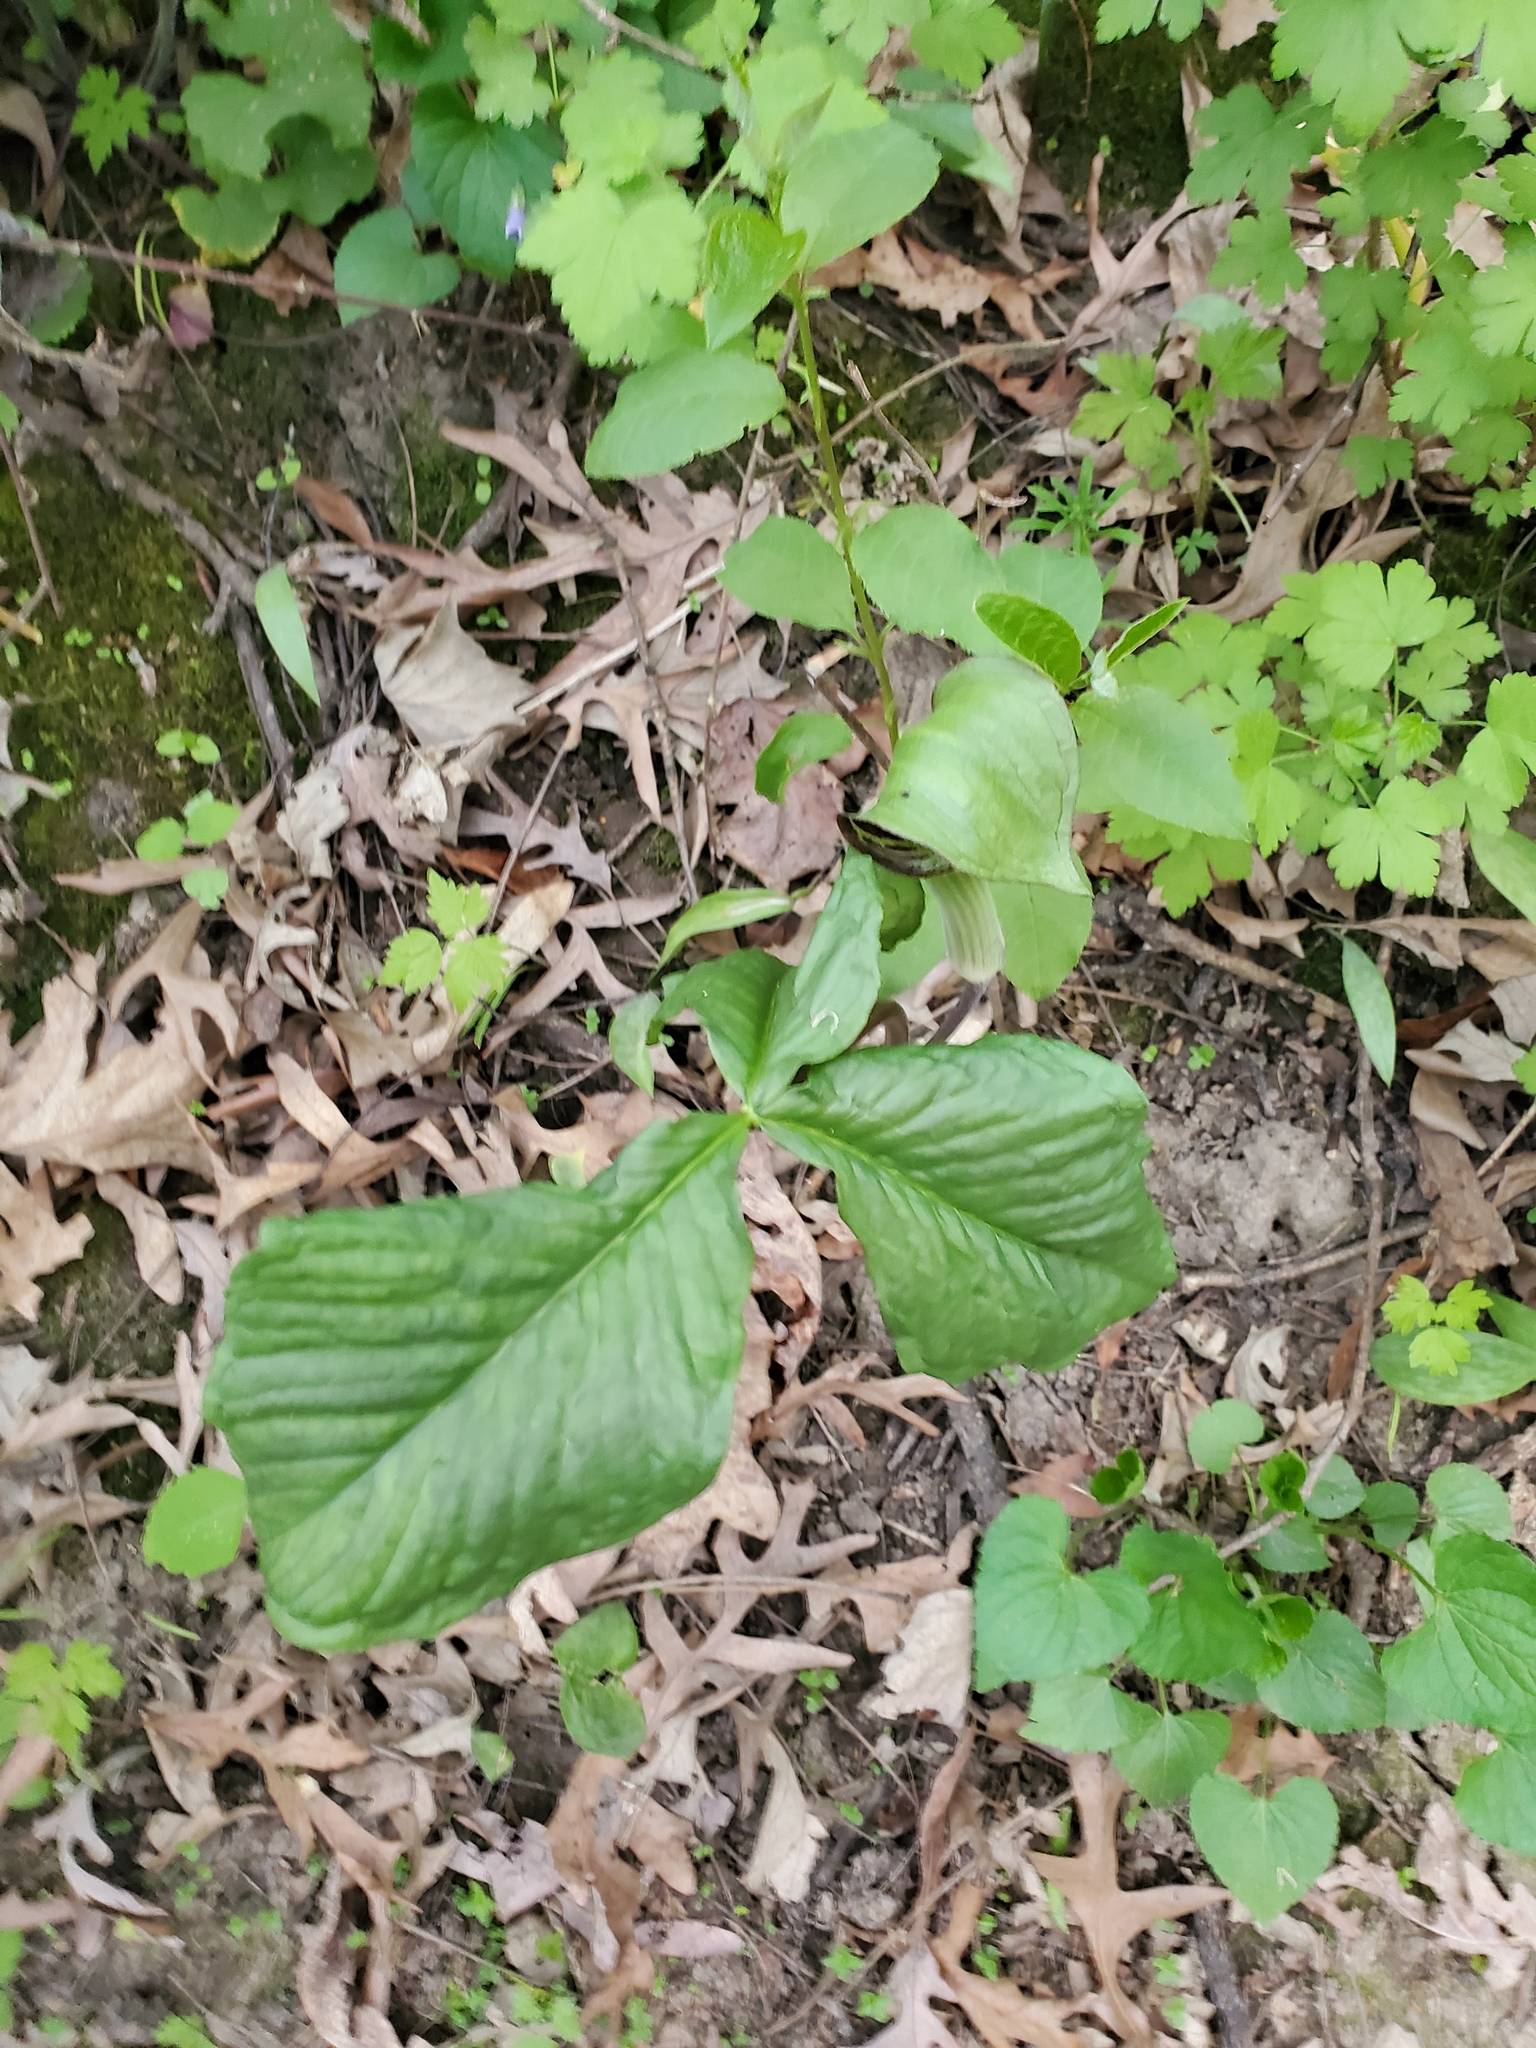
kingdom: Plantae
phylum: Tracheophyta
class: Liliopsida
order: Alismatales
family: Araceae
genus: Arisaema
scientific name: Arisaema triphyllum
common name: Jack-in-the-pulpit
